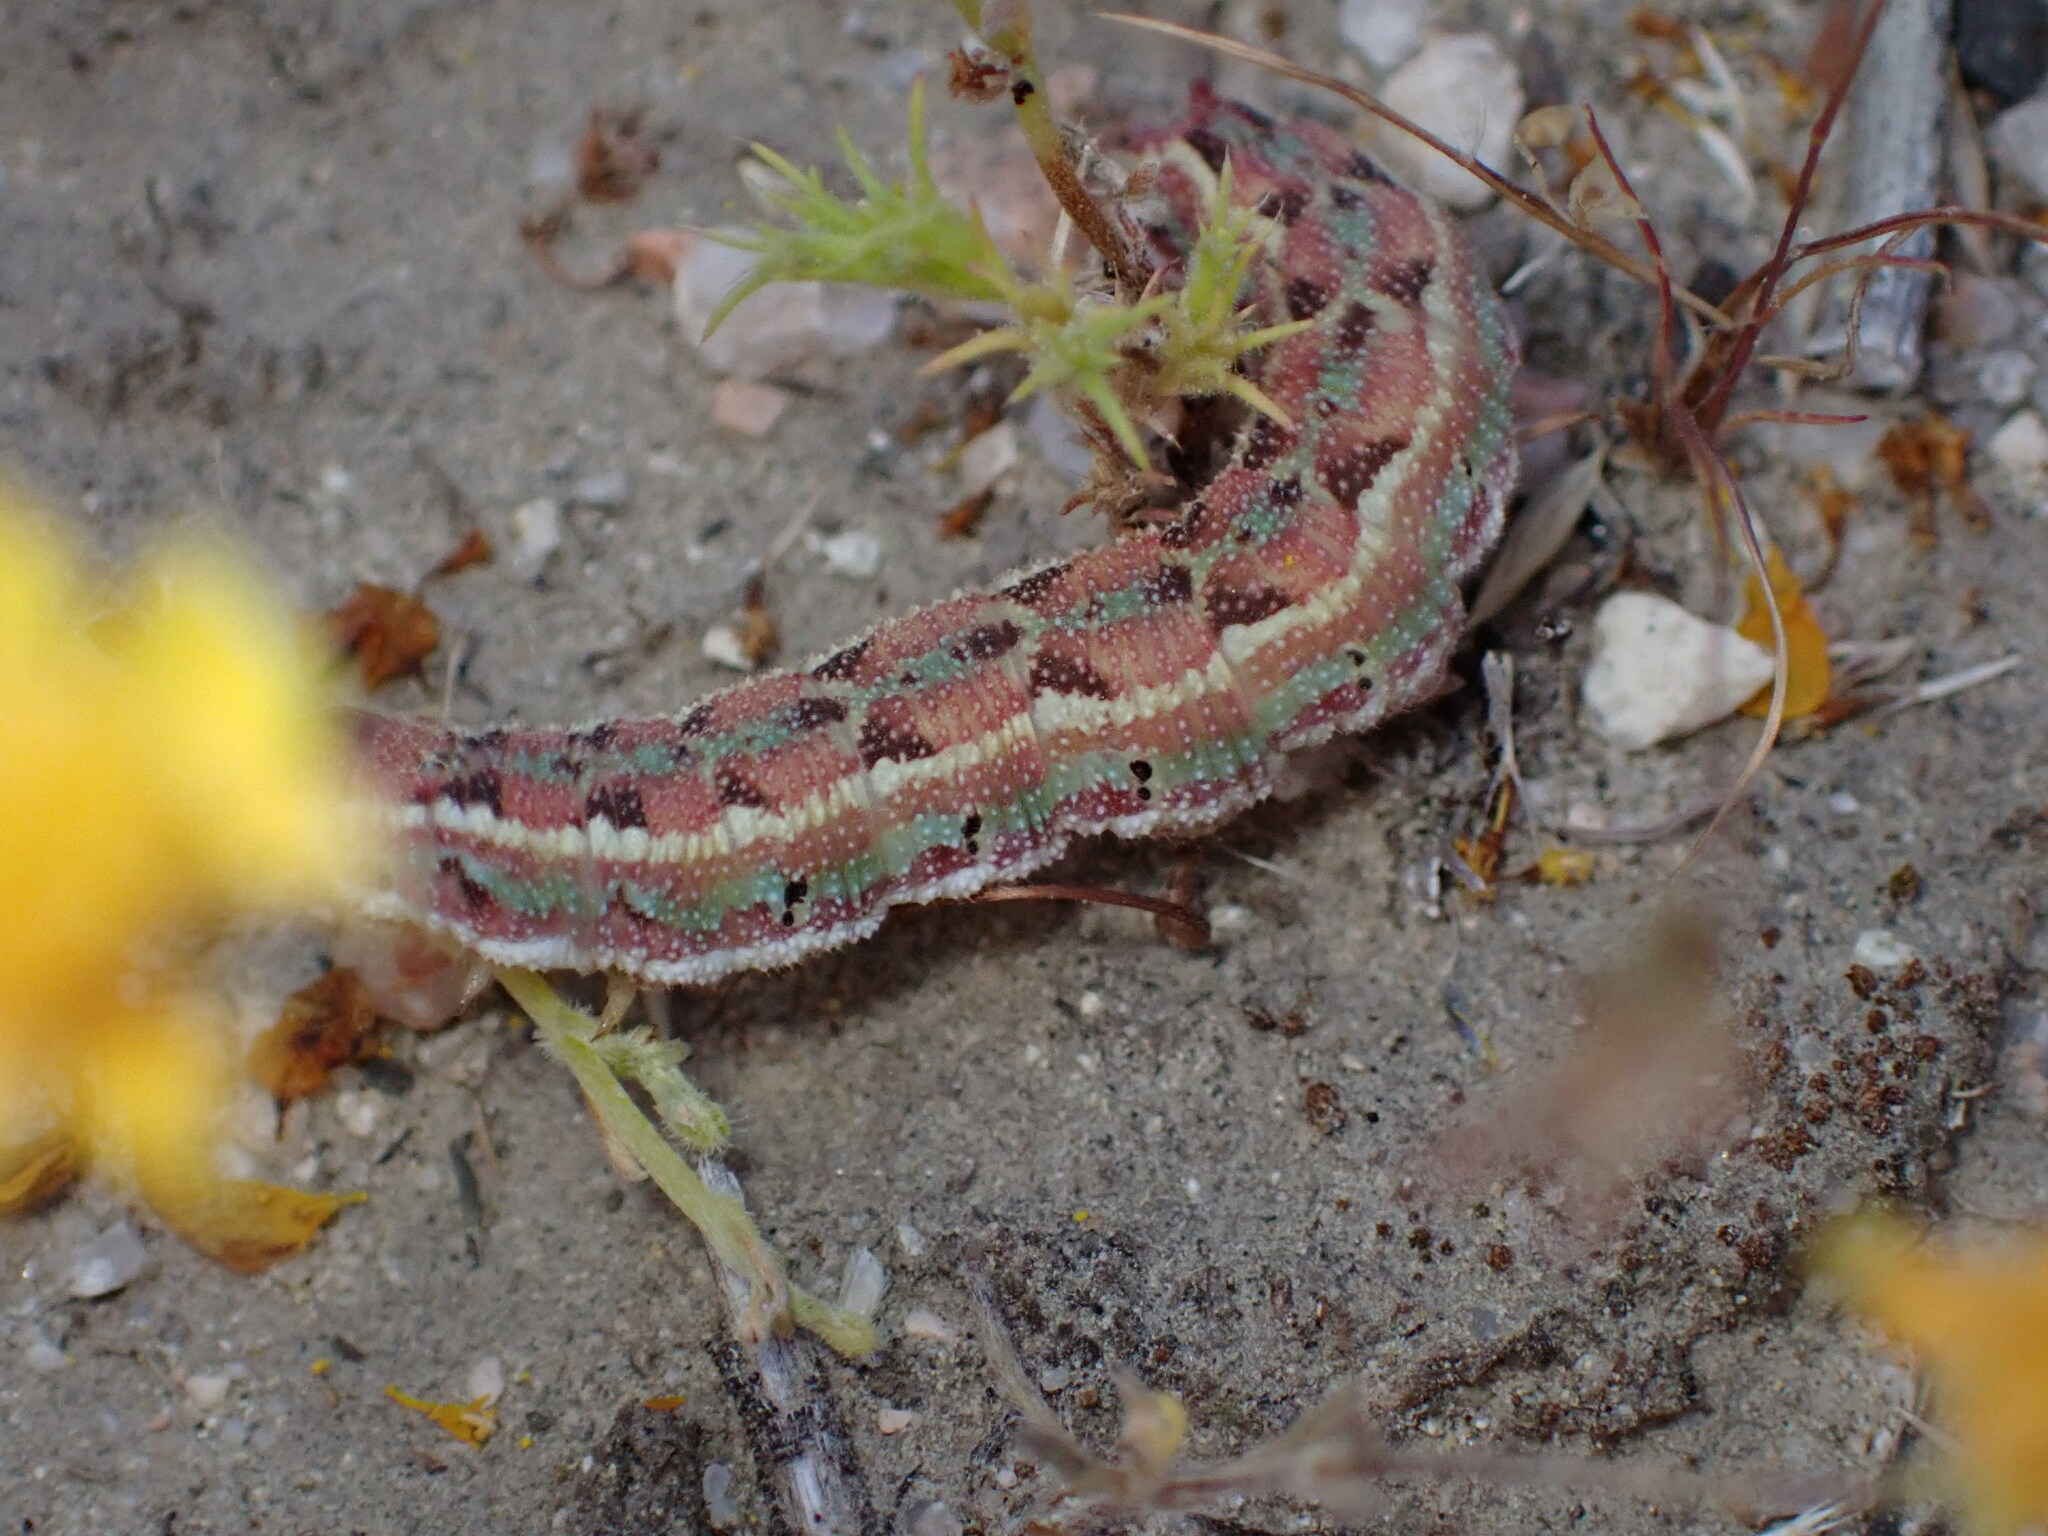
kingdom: Animalia
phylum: Arthropoda
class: Insecta
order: Lepidoptera
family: Sphingidae
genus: Euproserpinus
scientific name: Euproserpinus euterpe
